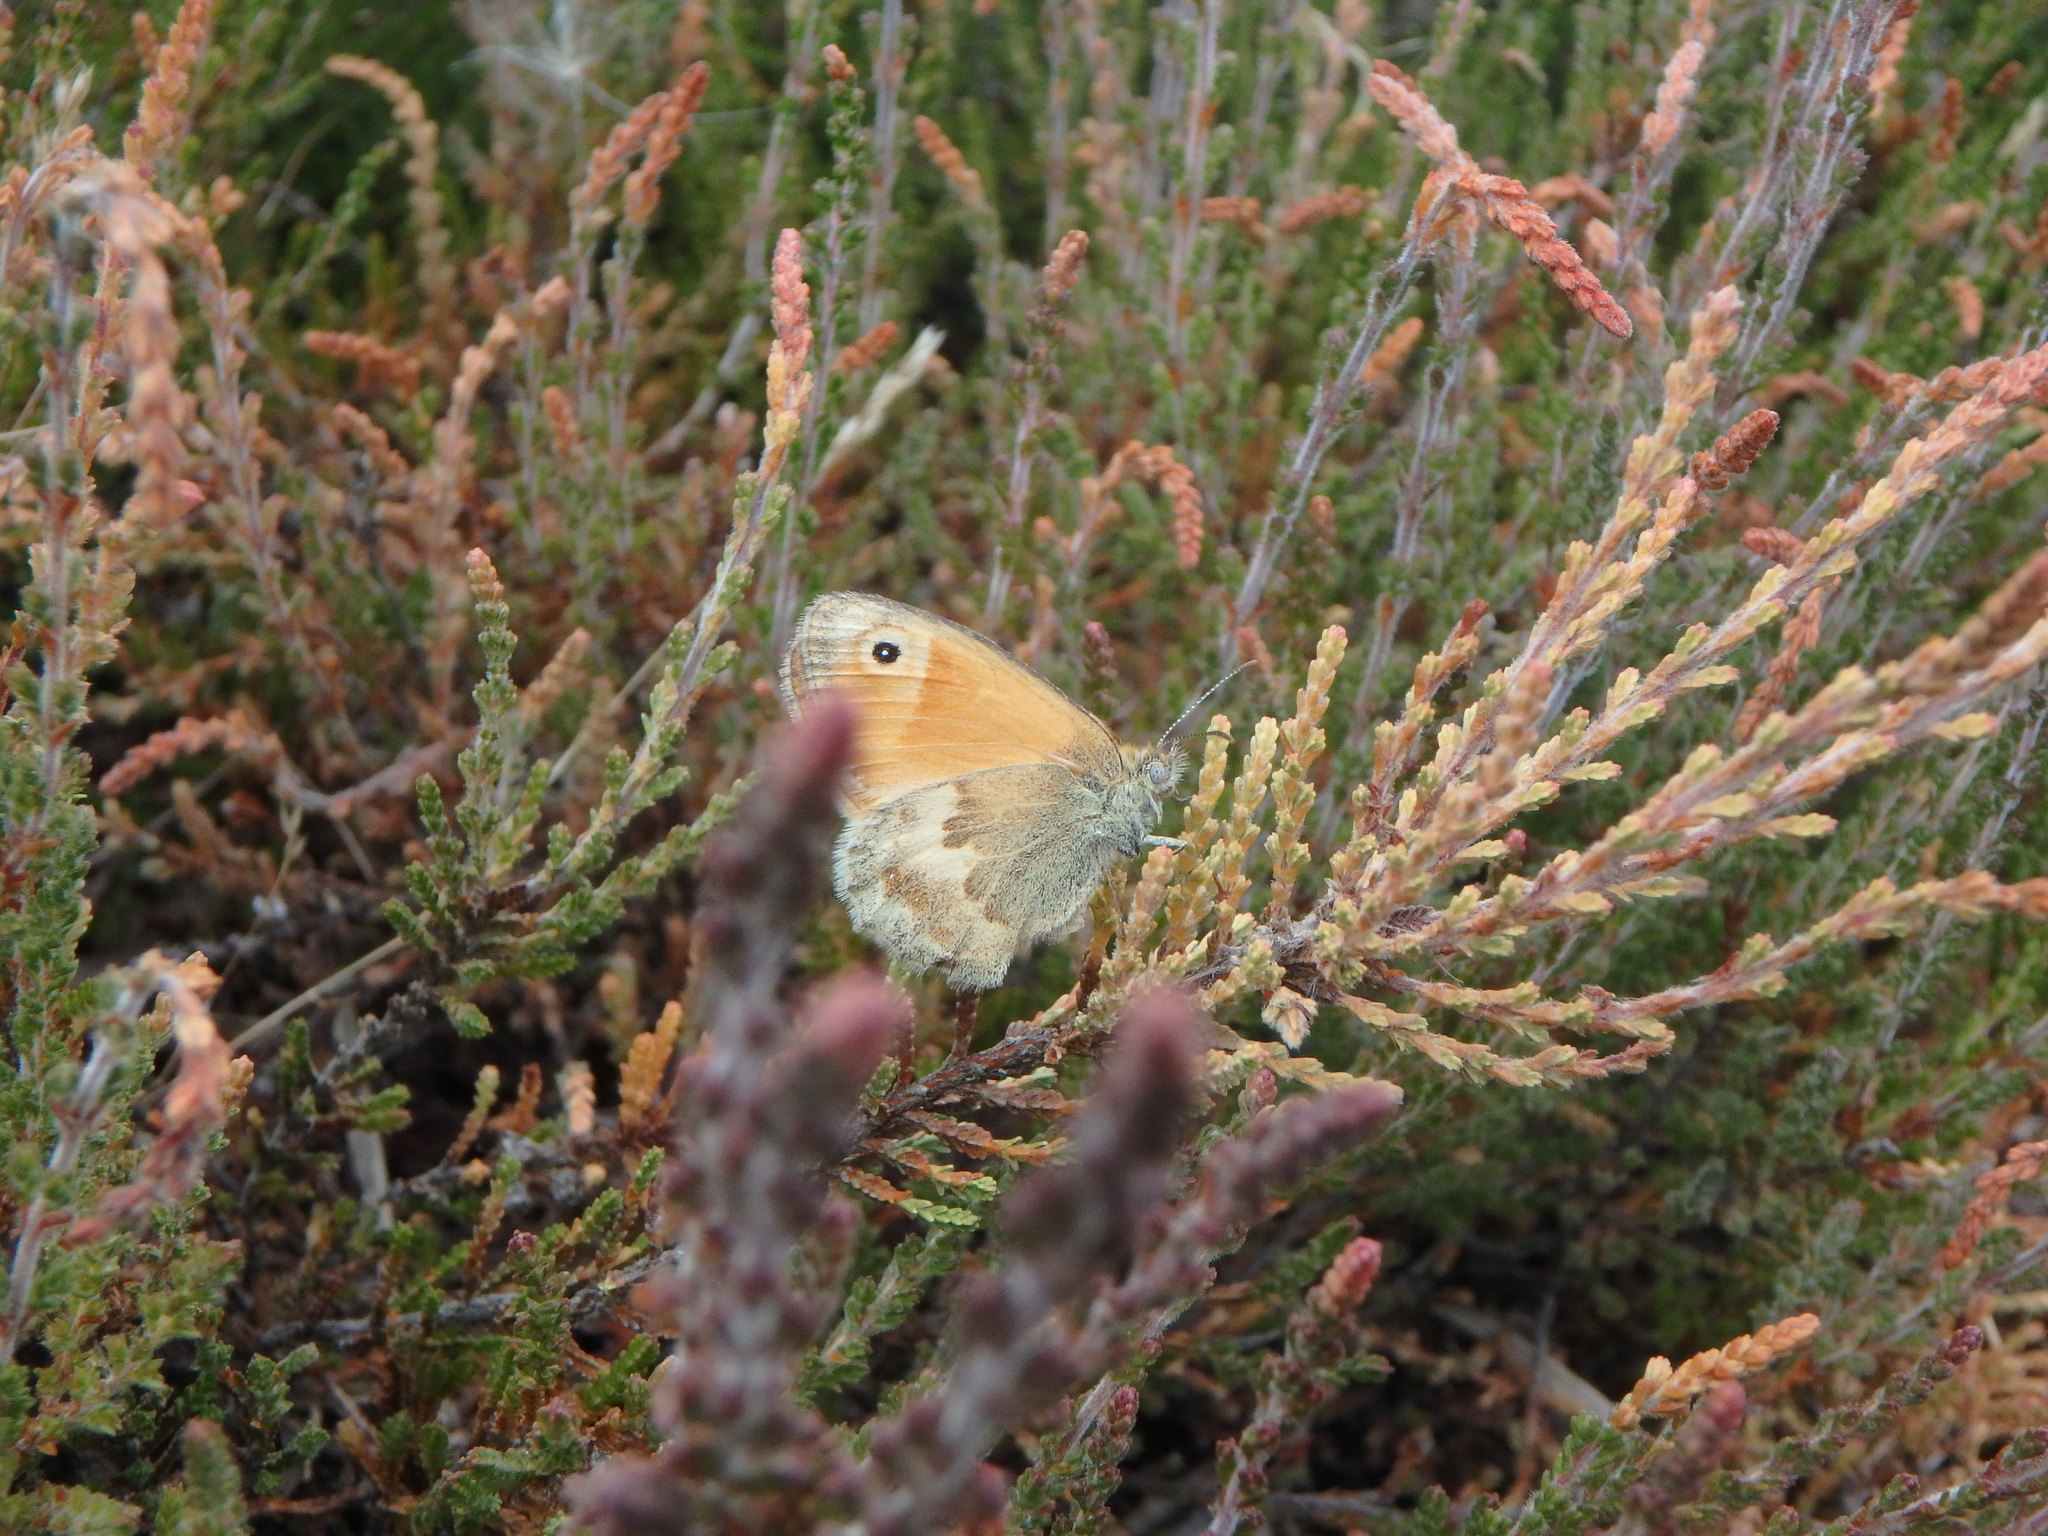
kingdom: Animalia
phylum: Arthropoda
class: Insecta
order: Lepidoptera
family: Nymphalidae
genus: Coenonympha
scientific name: Coenonympha pamphilus
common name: Small heath
